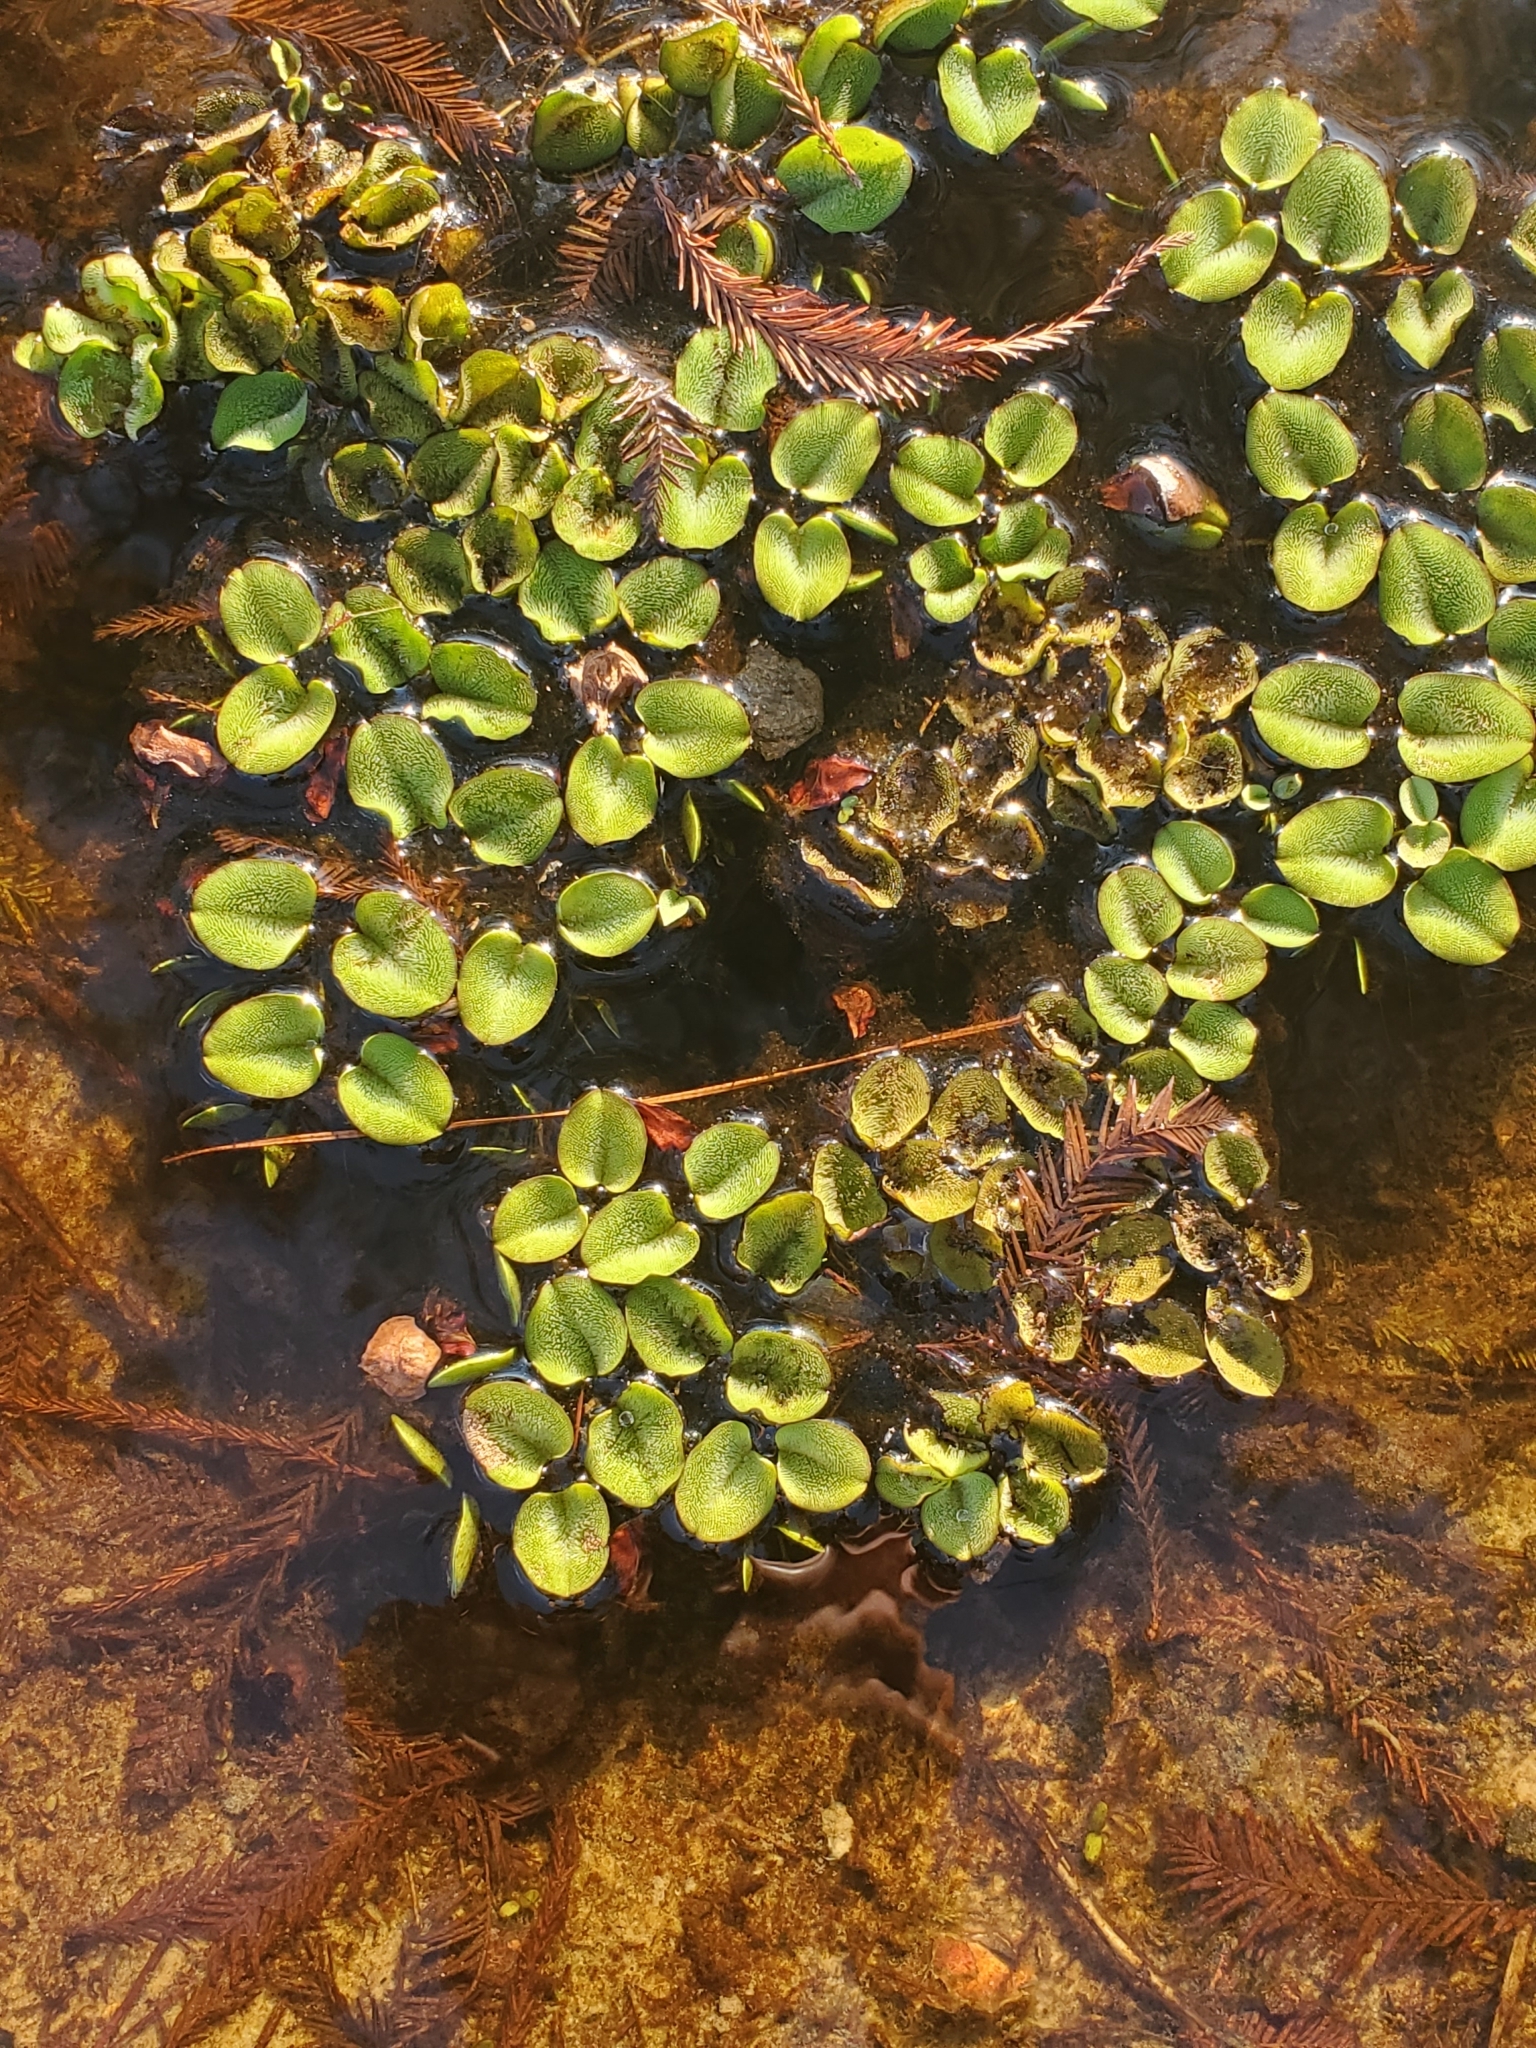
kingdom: Plantae
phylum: Tracheophyta
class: Polypodiopsida
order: Salviniales
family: Salviniaceae
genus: Salvinia
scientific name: Salvinia molesta
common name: Kariba weed
